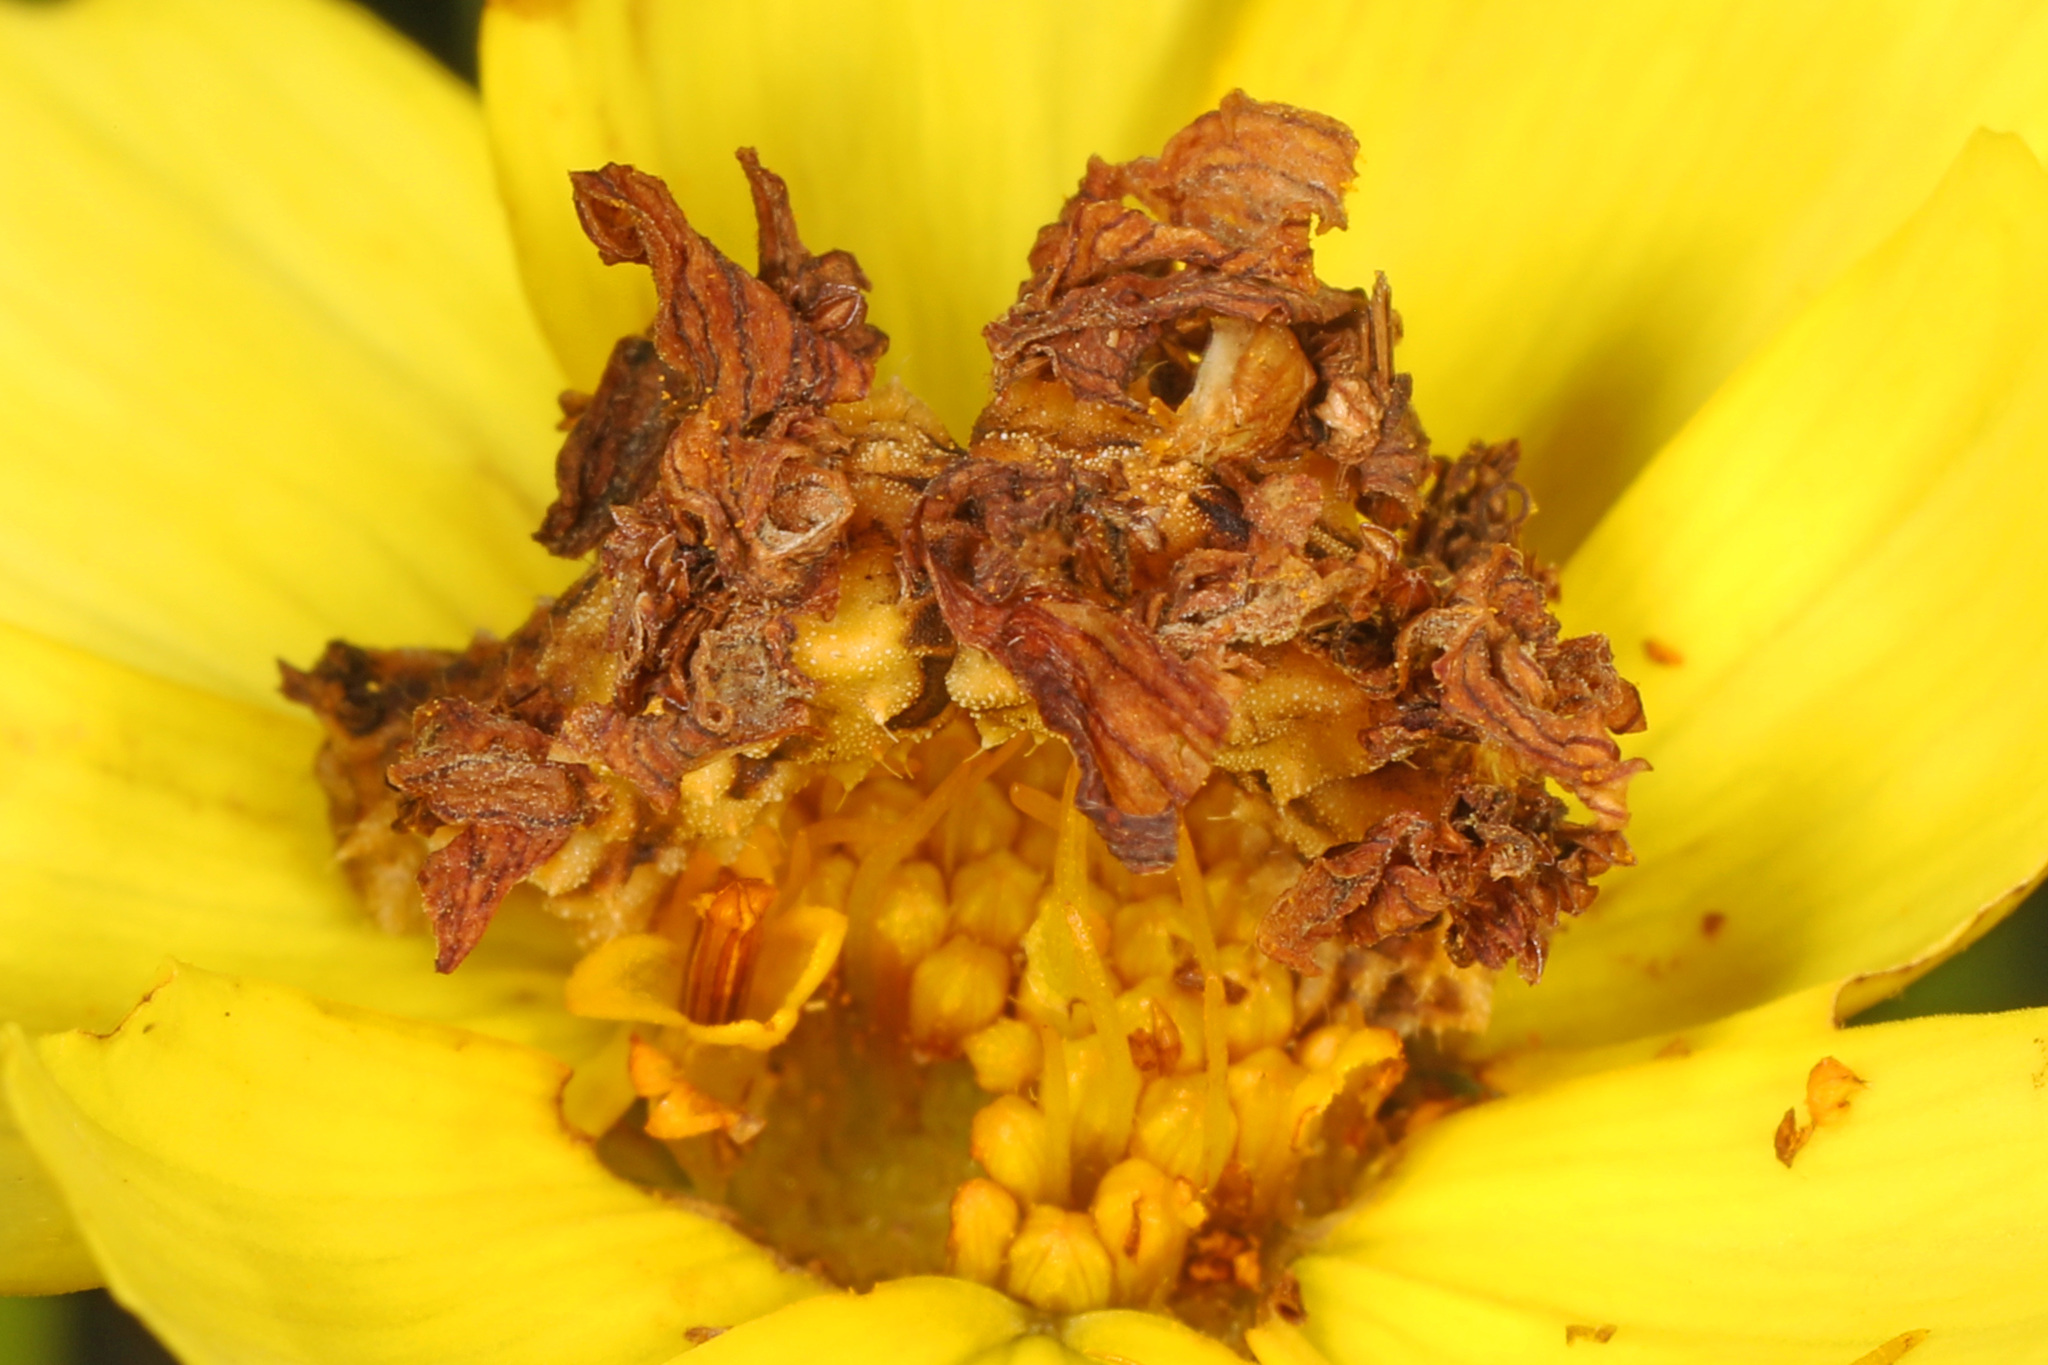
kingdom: Animalia
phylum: Arthropoda
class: Insecta
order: Lepidoptera
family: Geometridae
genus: Synchlora
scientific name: Synchlora aerata
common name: Wavy-lined emerald
